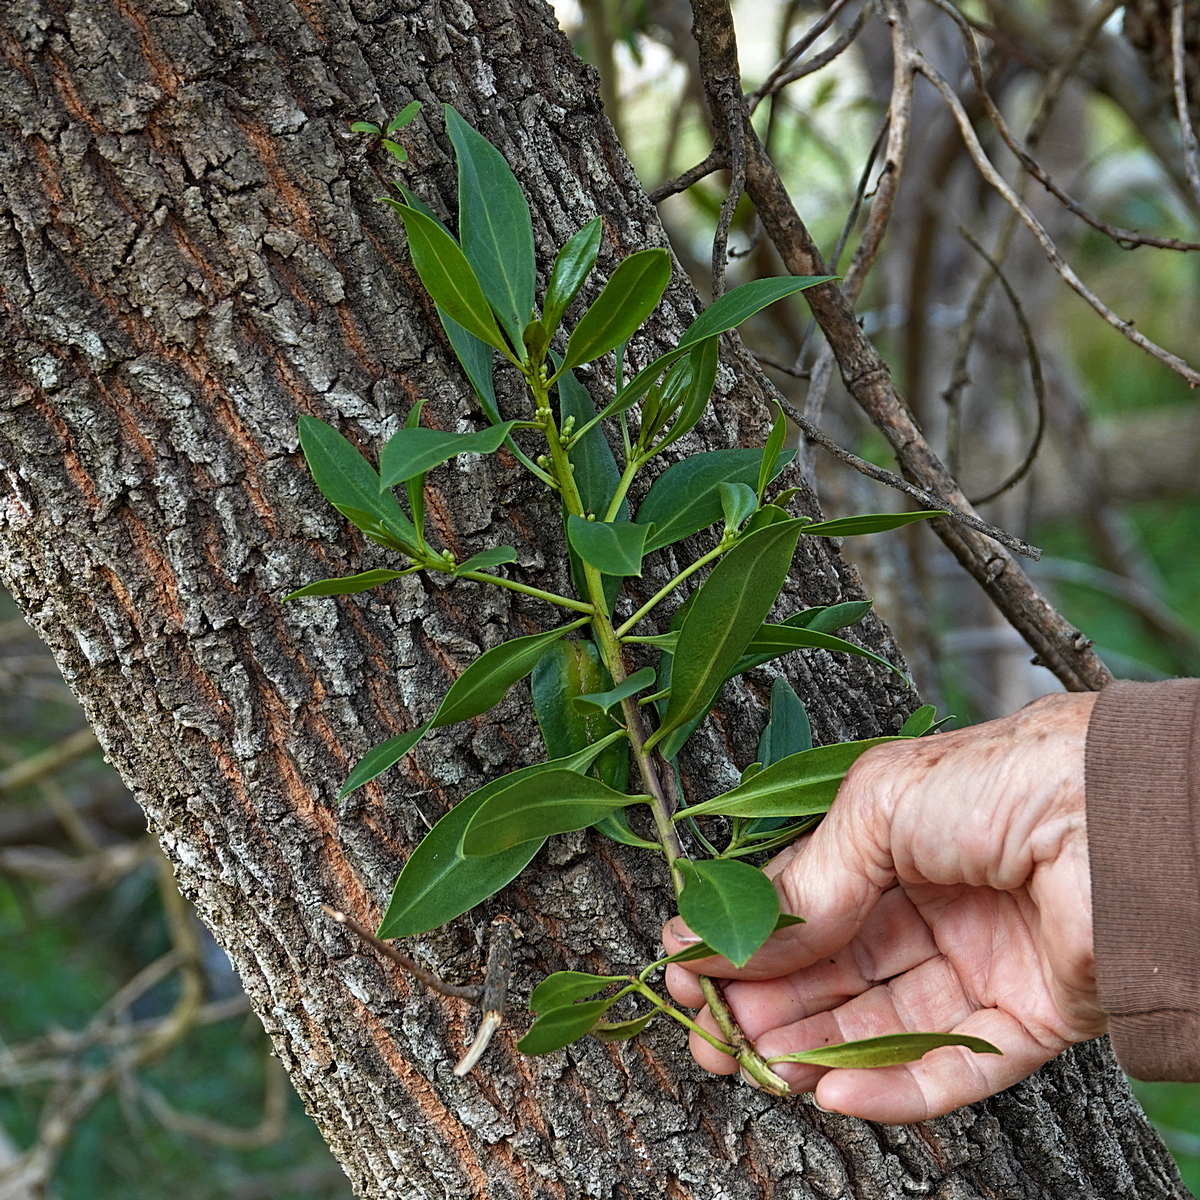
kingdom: Plantae
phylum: Tracheophyta
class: Magnoliopsida
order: Lamiales
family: Scrophulariaceae
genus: Myoporum
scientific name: Myoporum insulare
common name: Common boobialla
